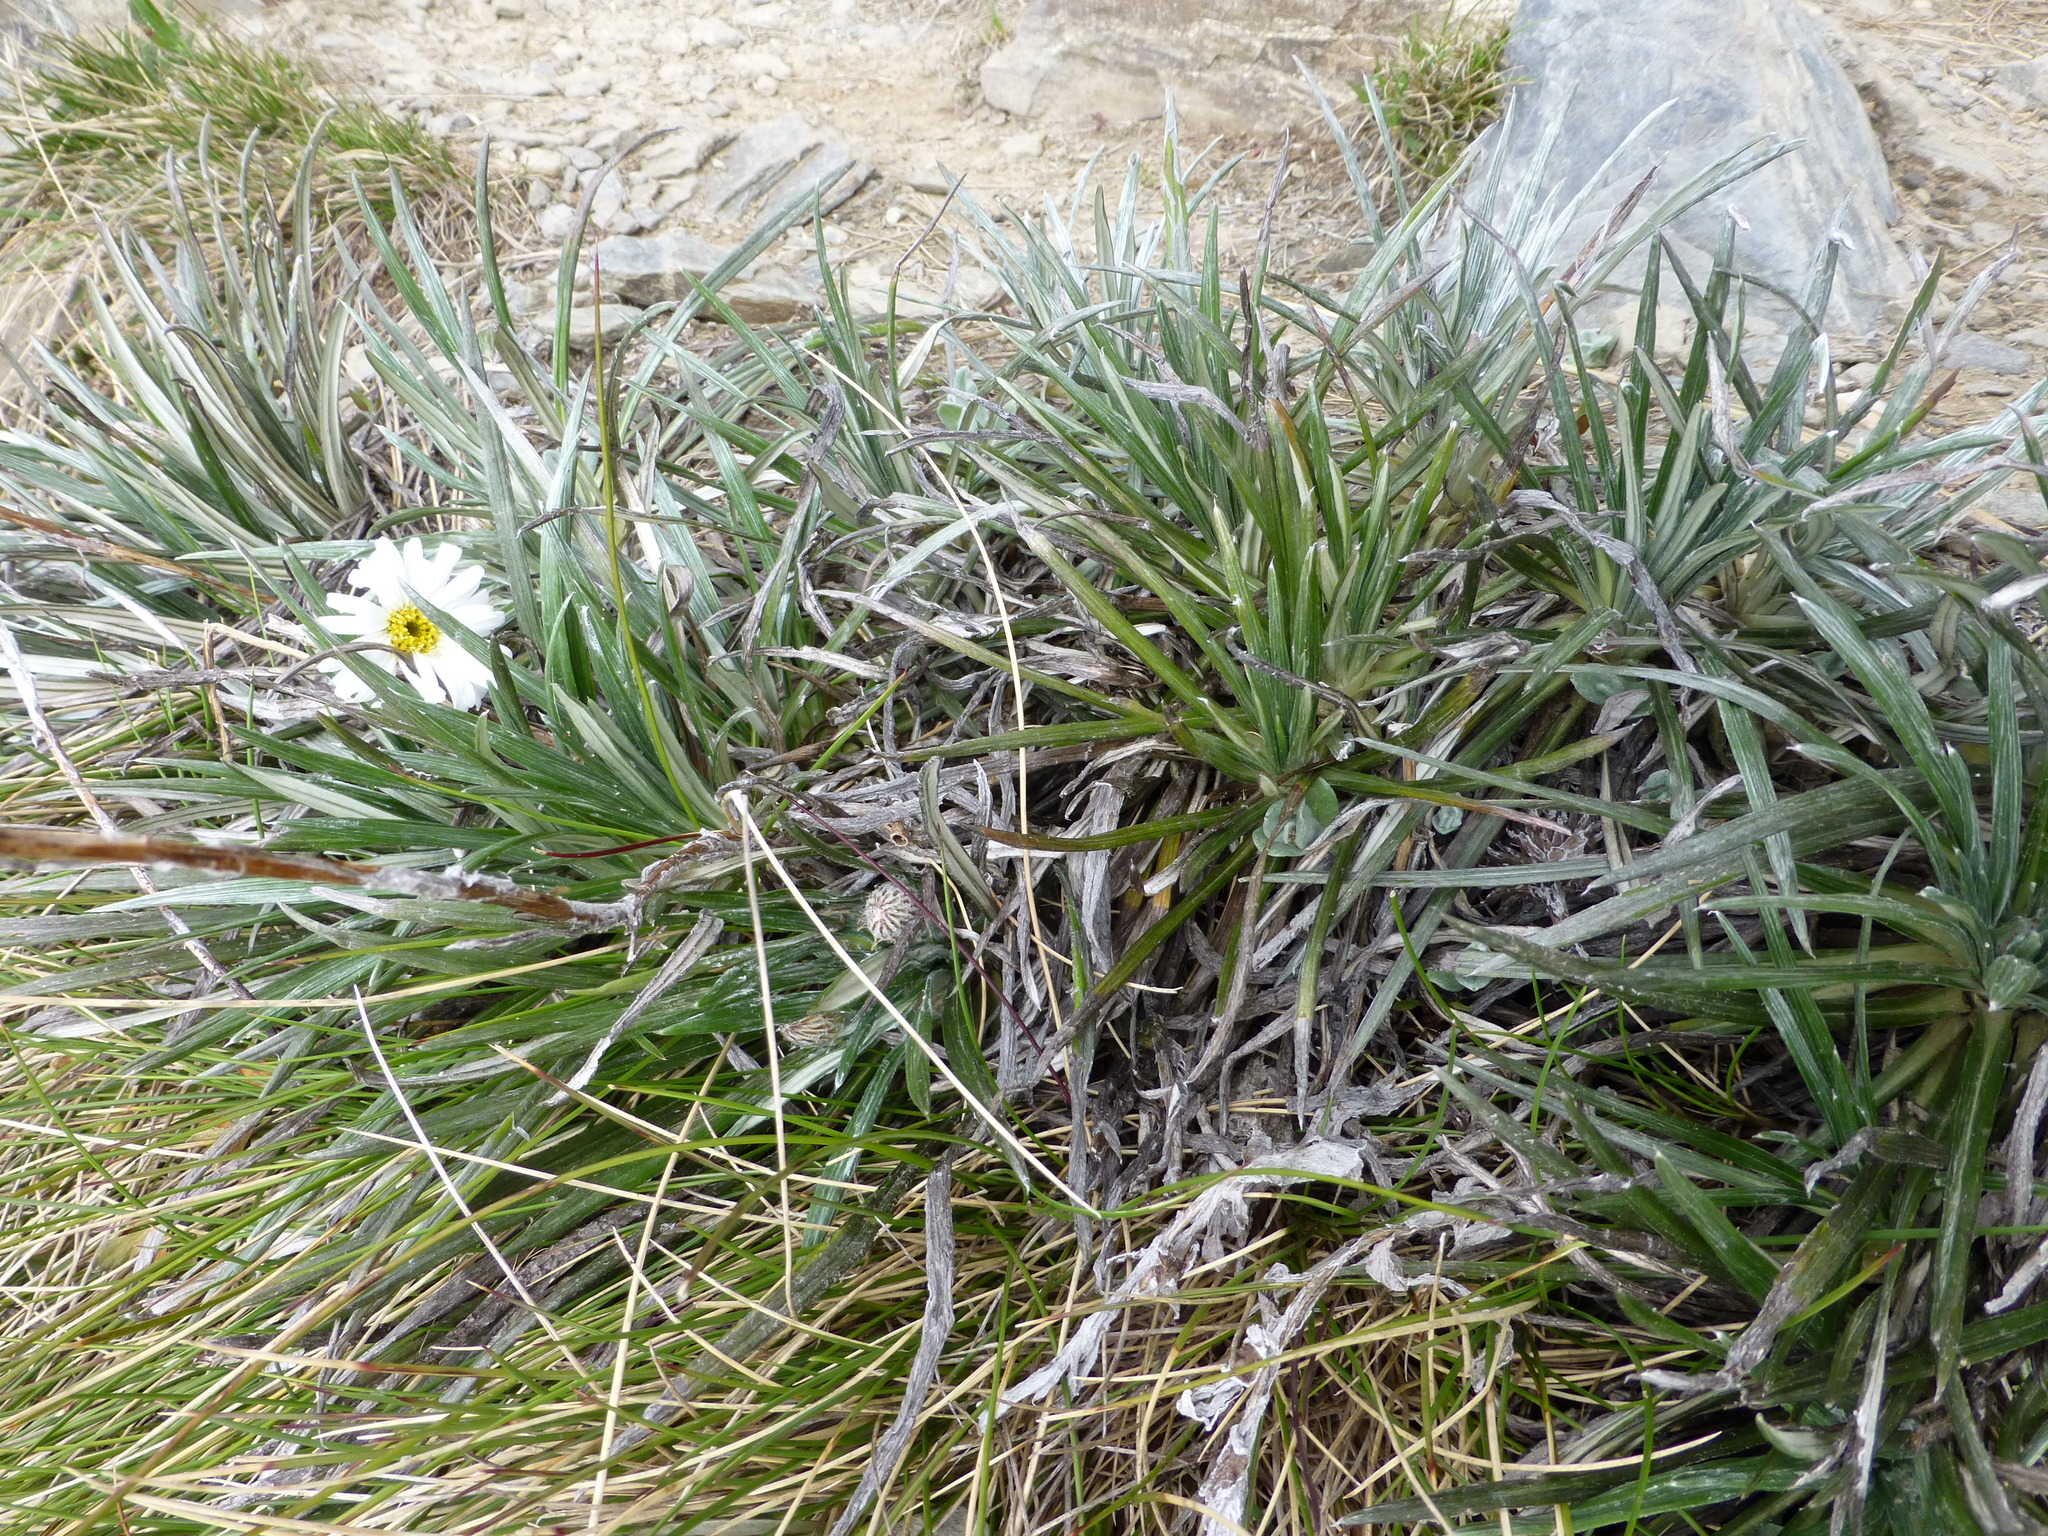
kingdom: Plantae
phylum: Tracheophyta
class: Magnoliopsida
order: Asterales
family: Asteraceae
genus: Celmisia
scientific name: Celmisia costiniana
